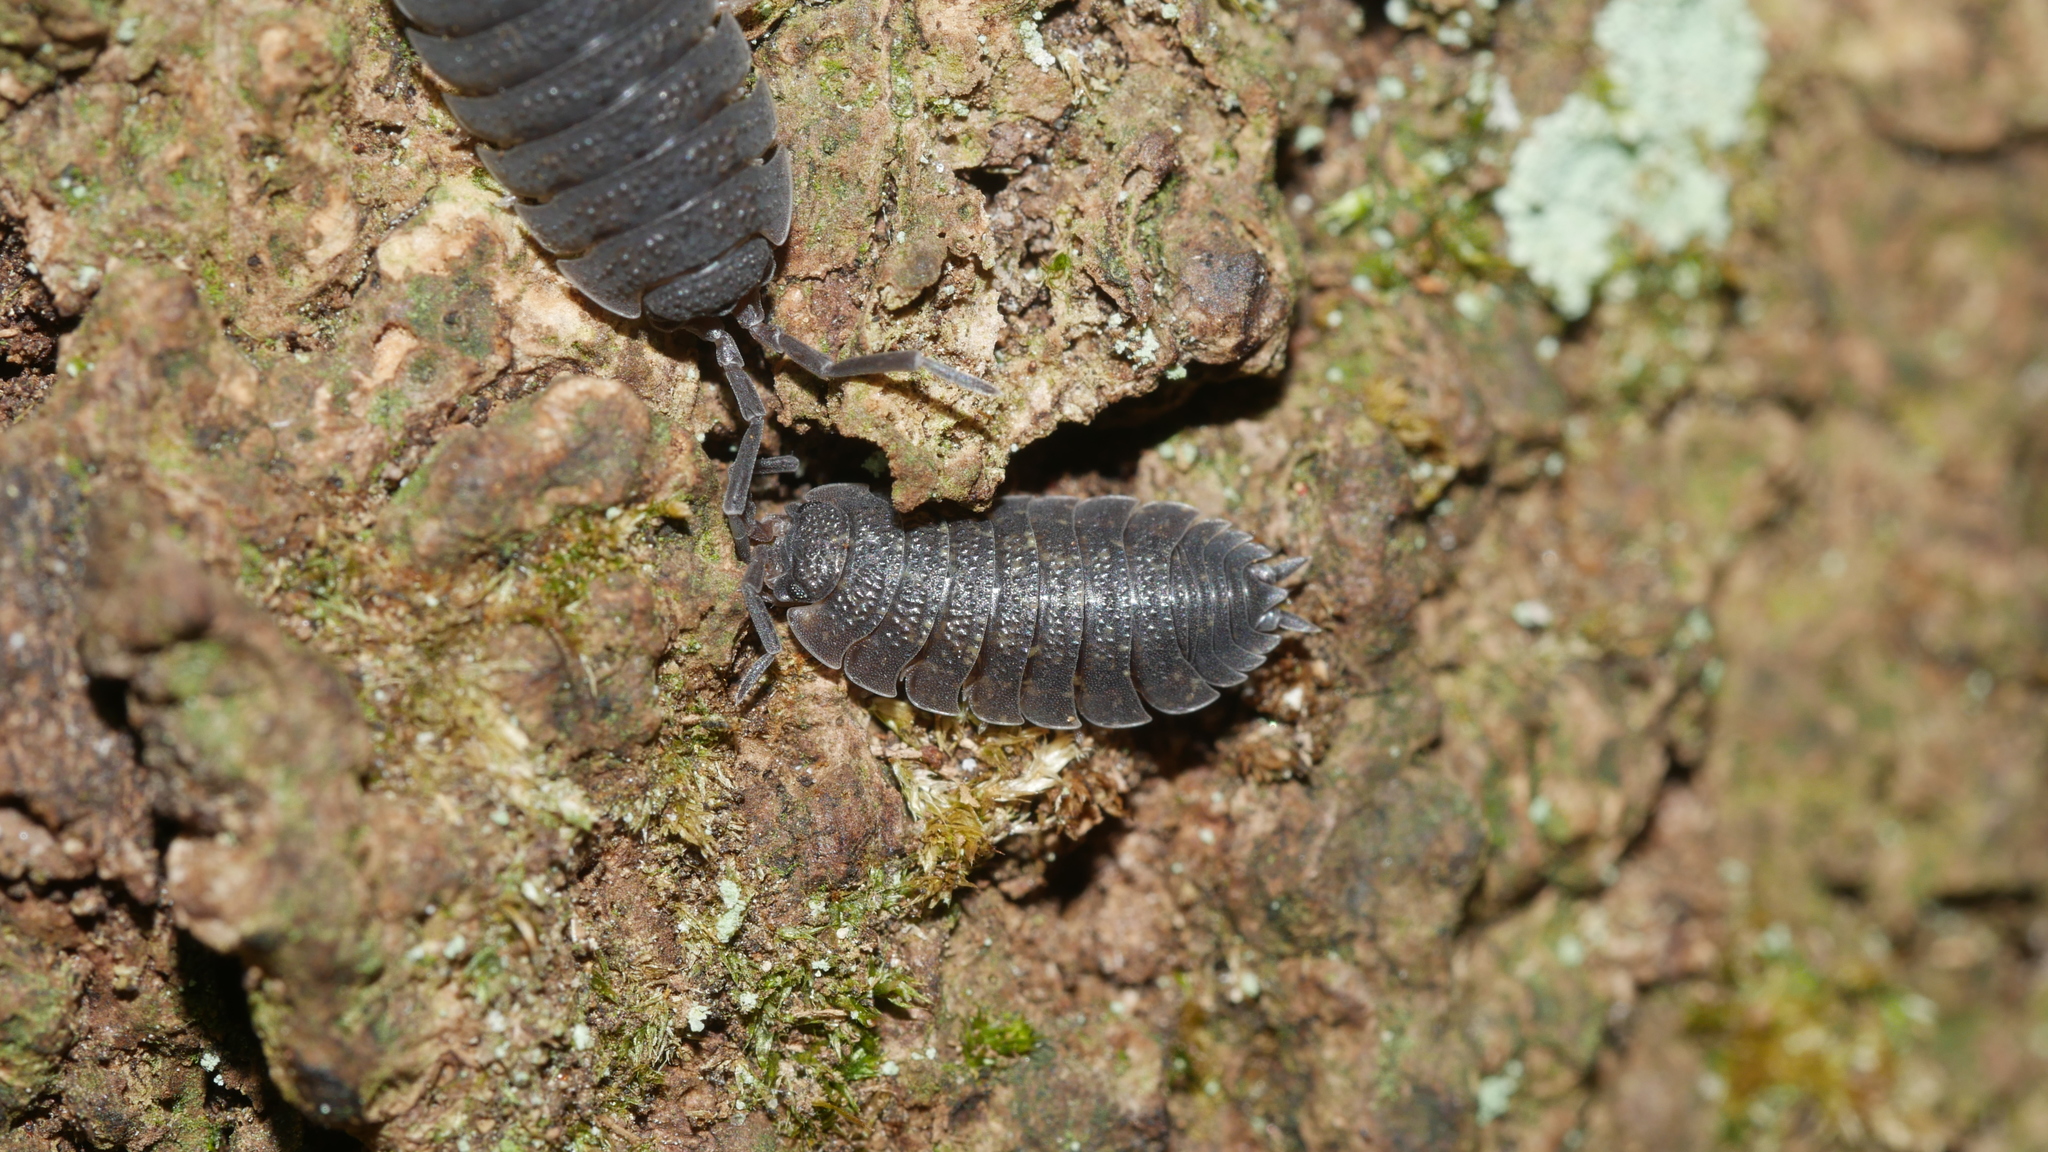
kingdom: Animalia
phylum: Arthropoda
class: Malacostraca
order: Isopoda
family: Porcellionidae
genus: Porcellio
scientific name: Porcellio scaber
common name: Common rough woodlouse
